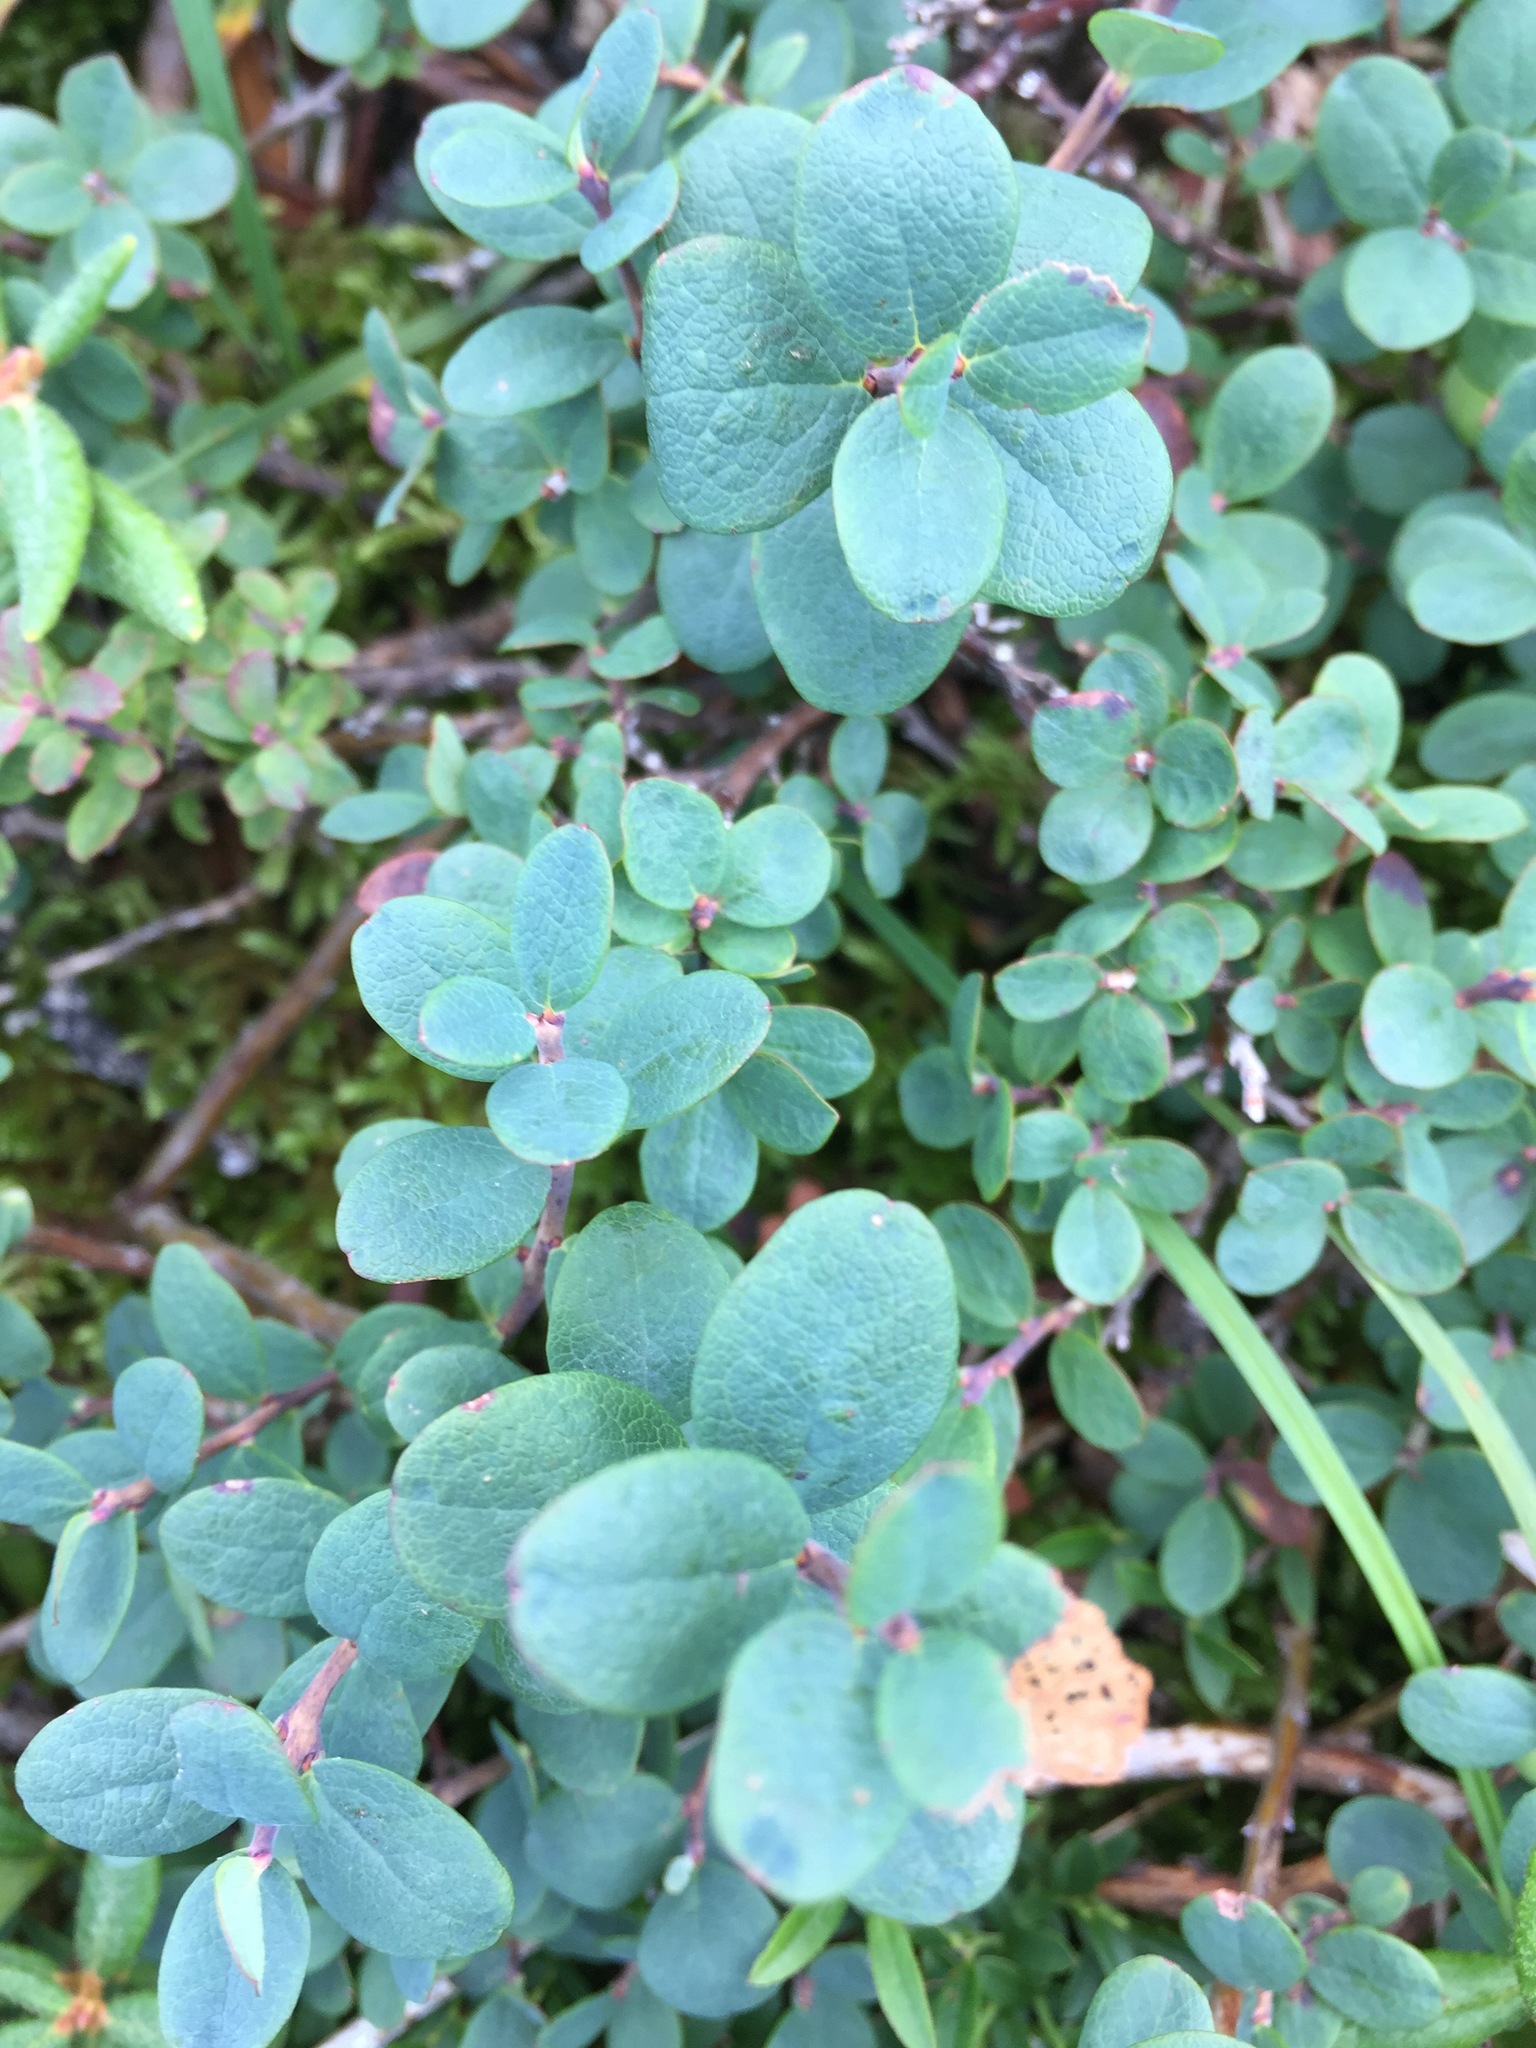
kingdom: Plantae
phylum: Tracheophyta
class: Magnoliopsida
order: Ericales
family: Ericaceae
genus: Vaccinium
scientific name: Vaccinium uliginosum
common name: Bog bilberry
